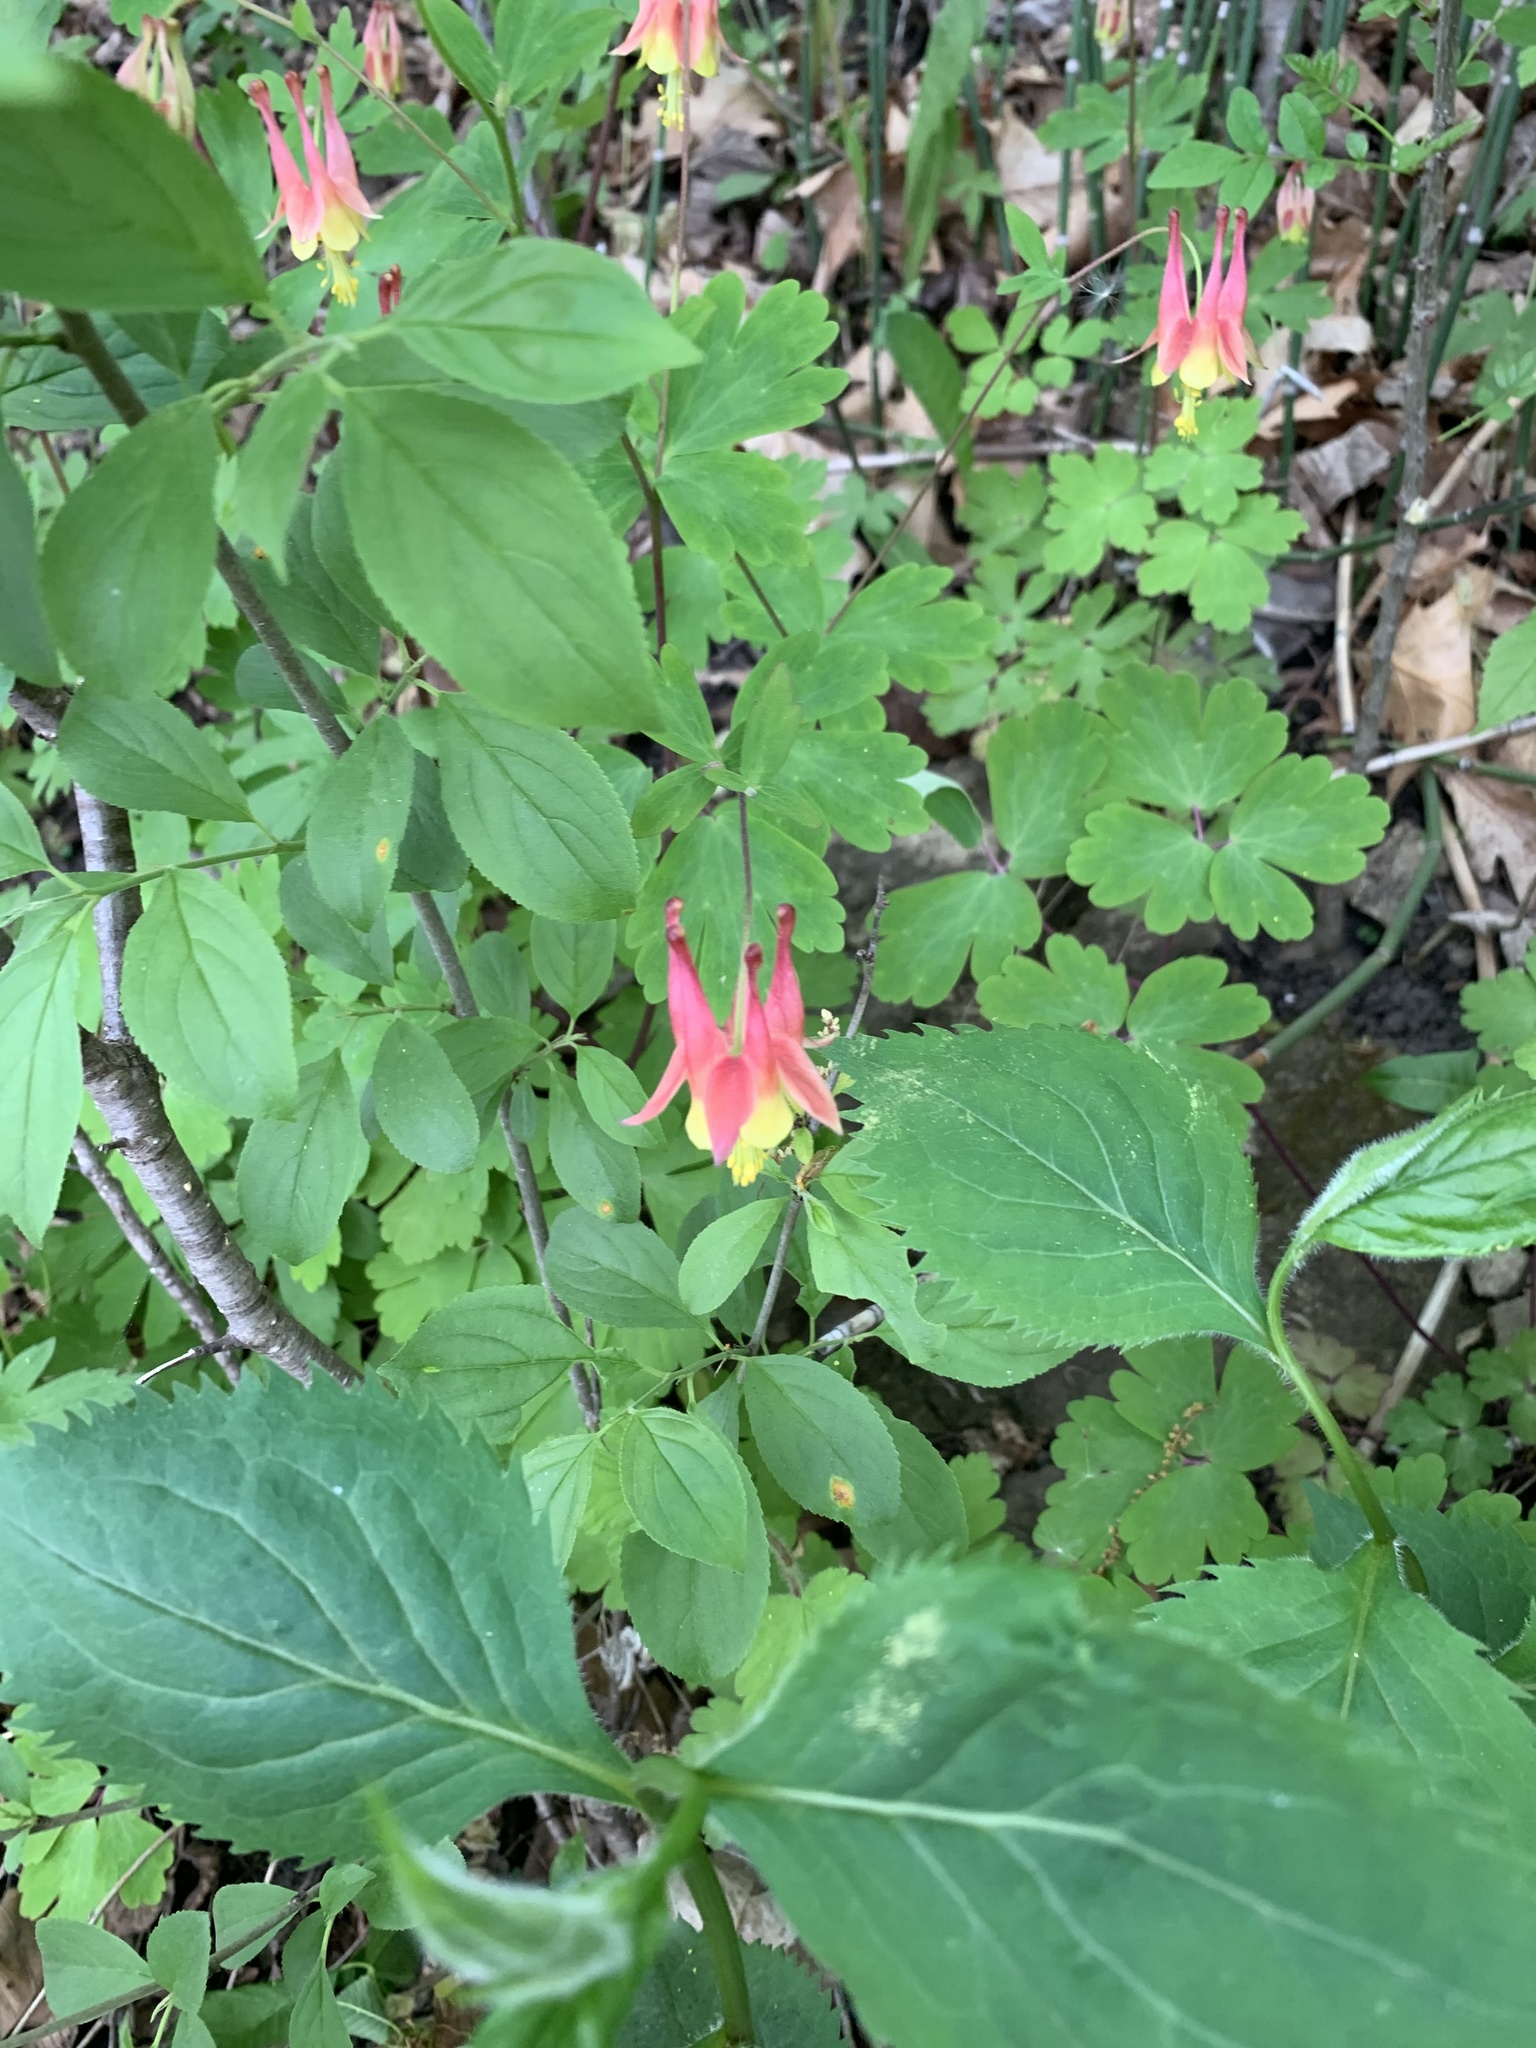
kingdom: Plantae
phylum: Tracheophyta
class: Magnoliopsida
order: Ranunculales
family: Ranunculaceae
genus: Aquilegia
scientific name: Aquilegia canadensis
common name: American columbine
